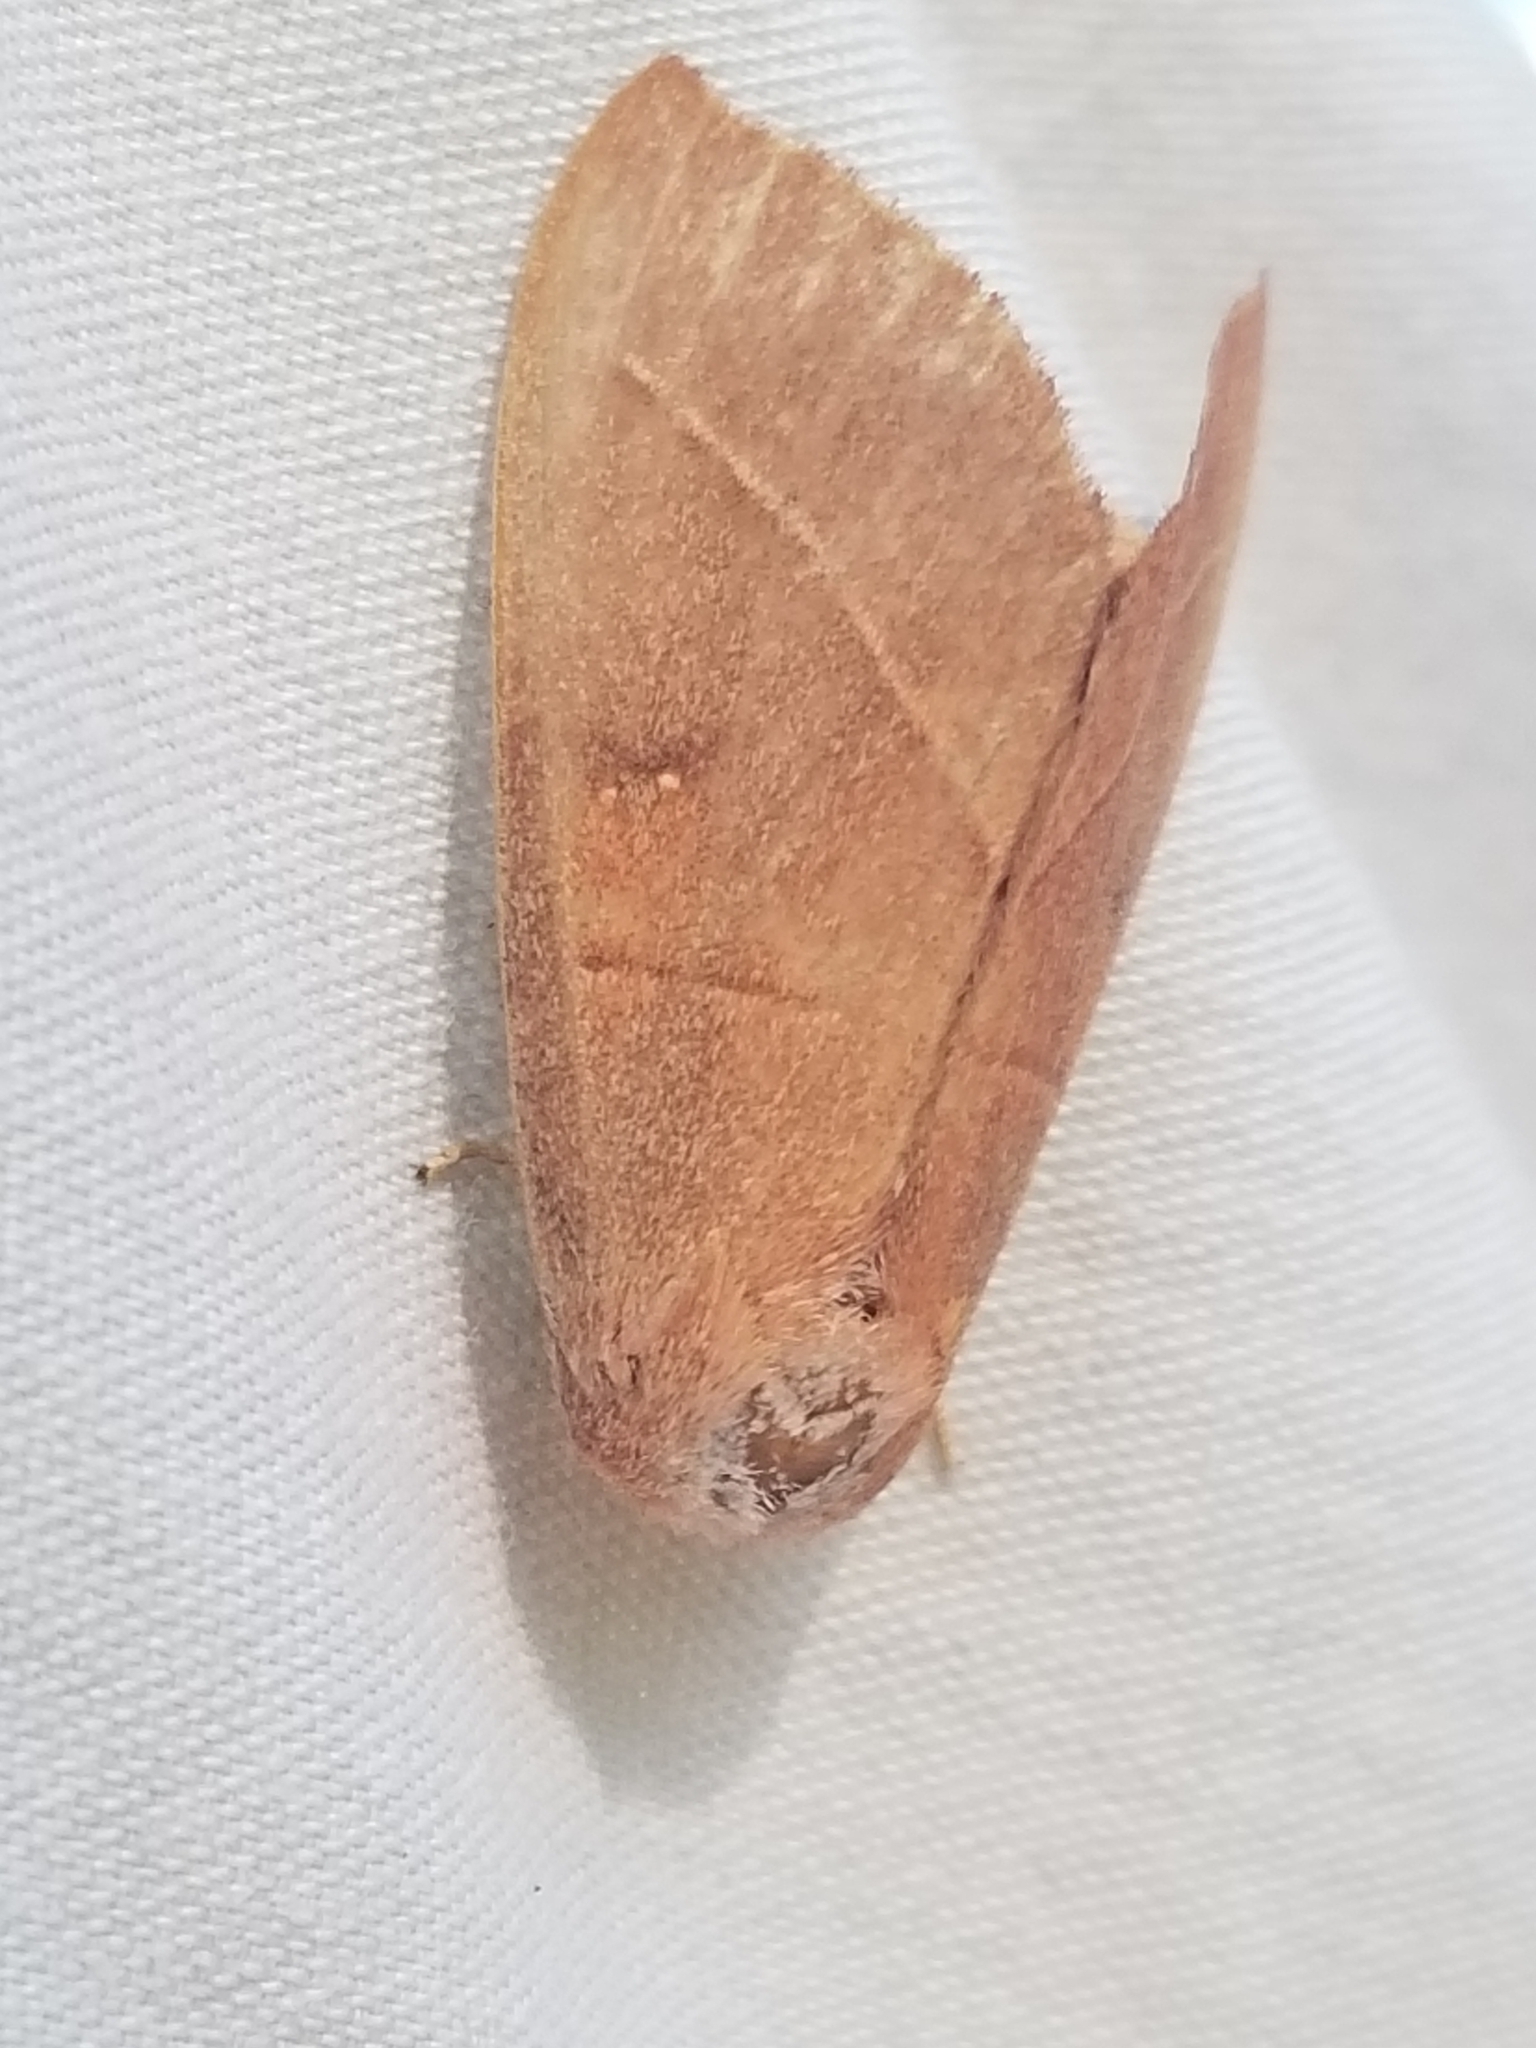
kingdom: Animalia
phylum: Arthropoda
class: Insecta
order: Lepidoptera
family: Notodontidae
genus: Nadata
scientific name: Nadata gibbosa
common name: White-dotted prominent
